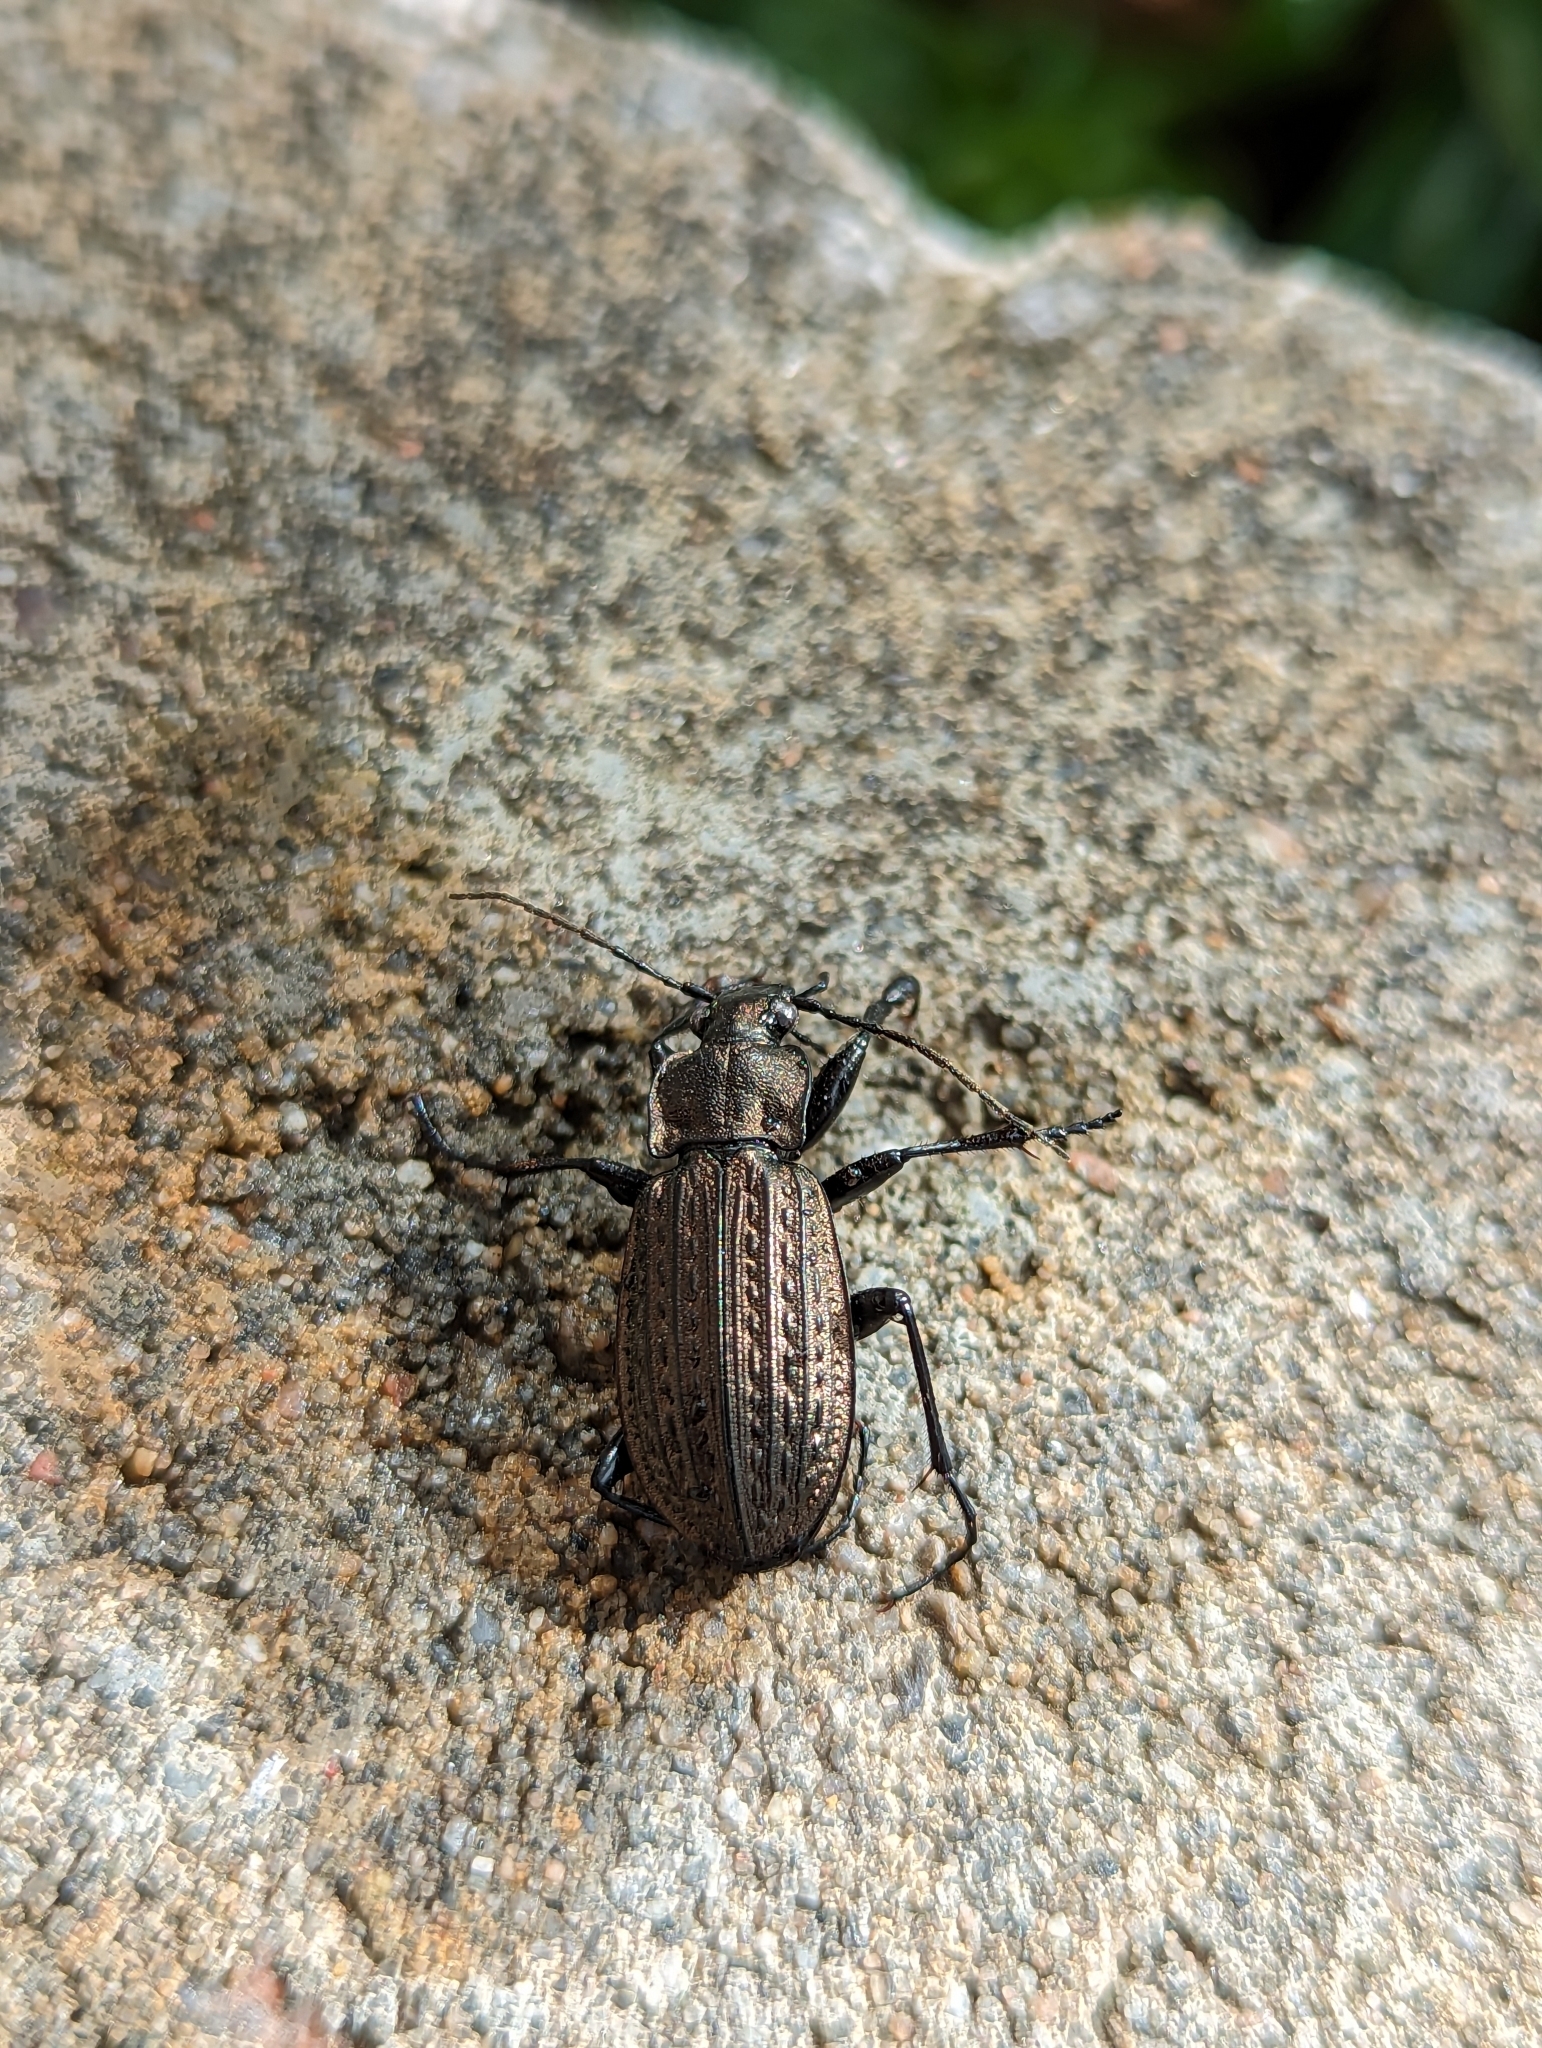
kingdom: Animalia
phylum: Arthropoda
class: Insecta
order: Coleoptera
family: Carabidae
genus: Carabus
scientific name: Carabus granulatus
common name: Granulate ground beetle
